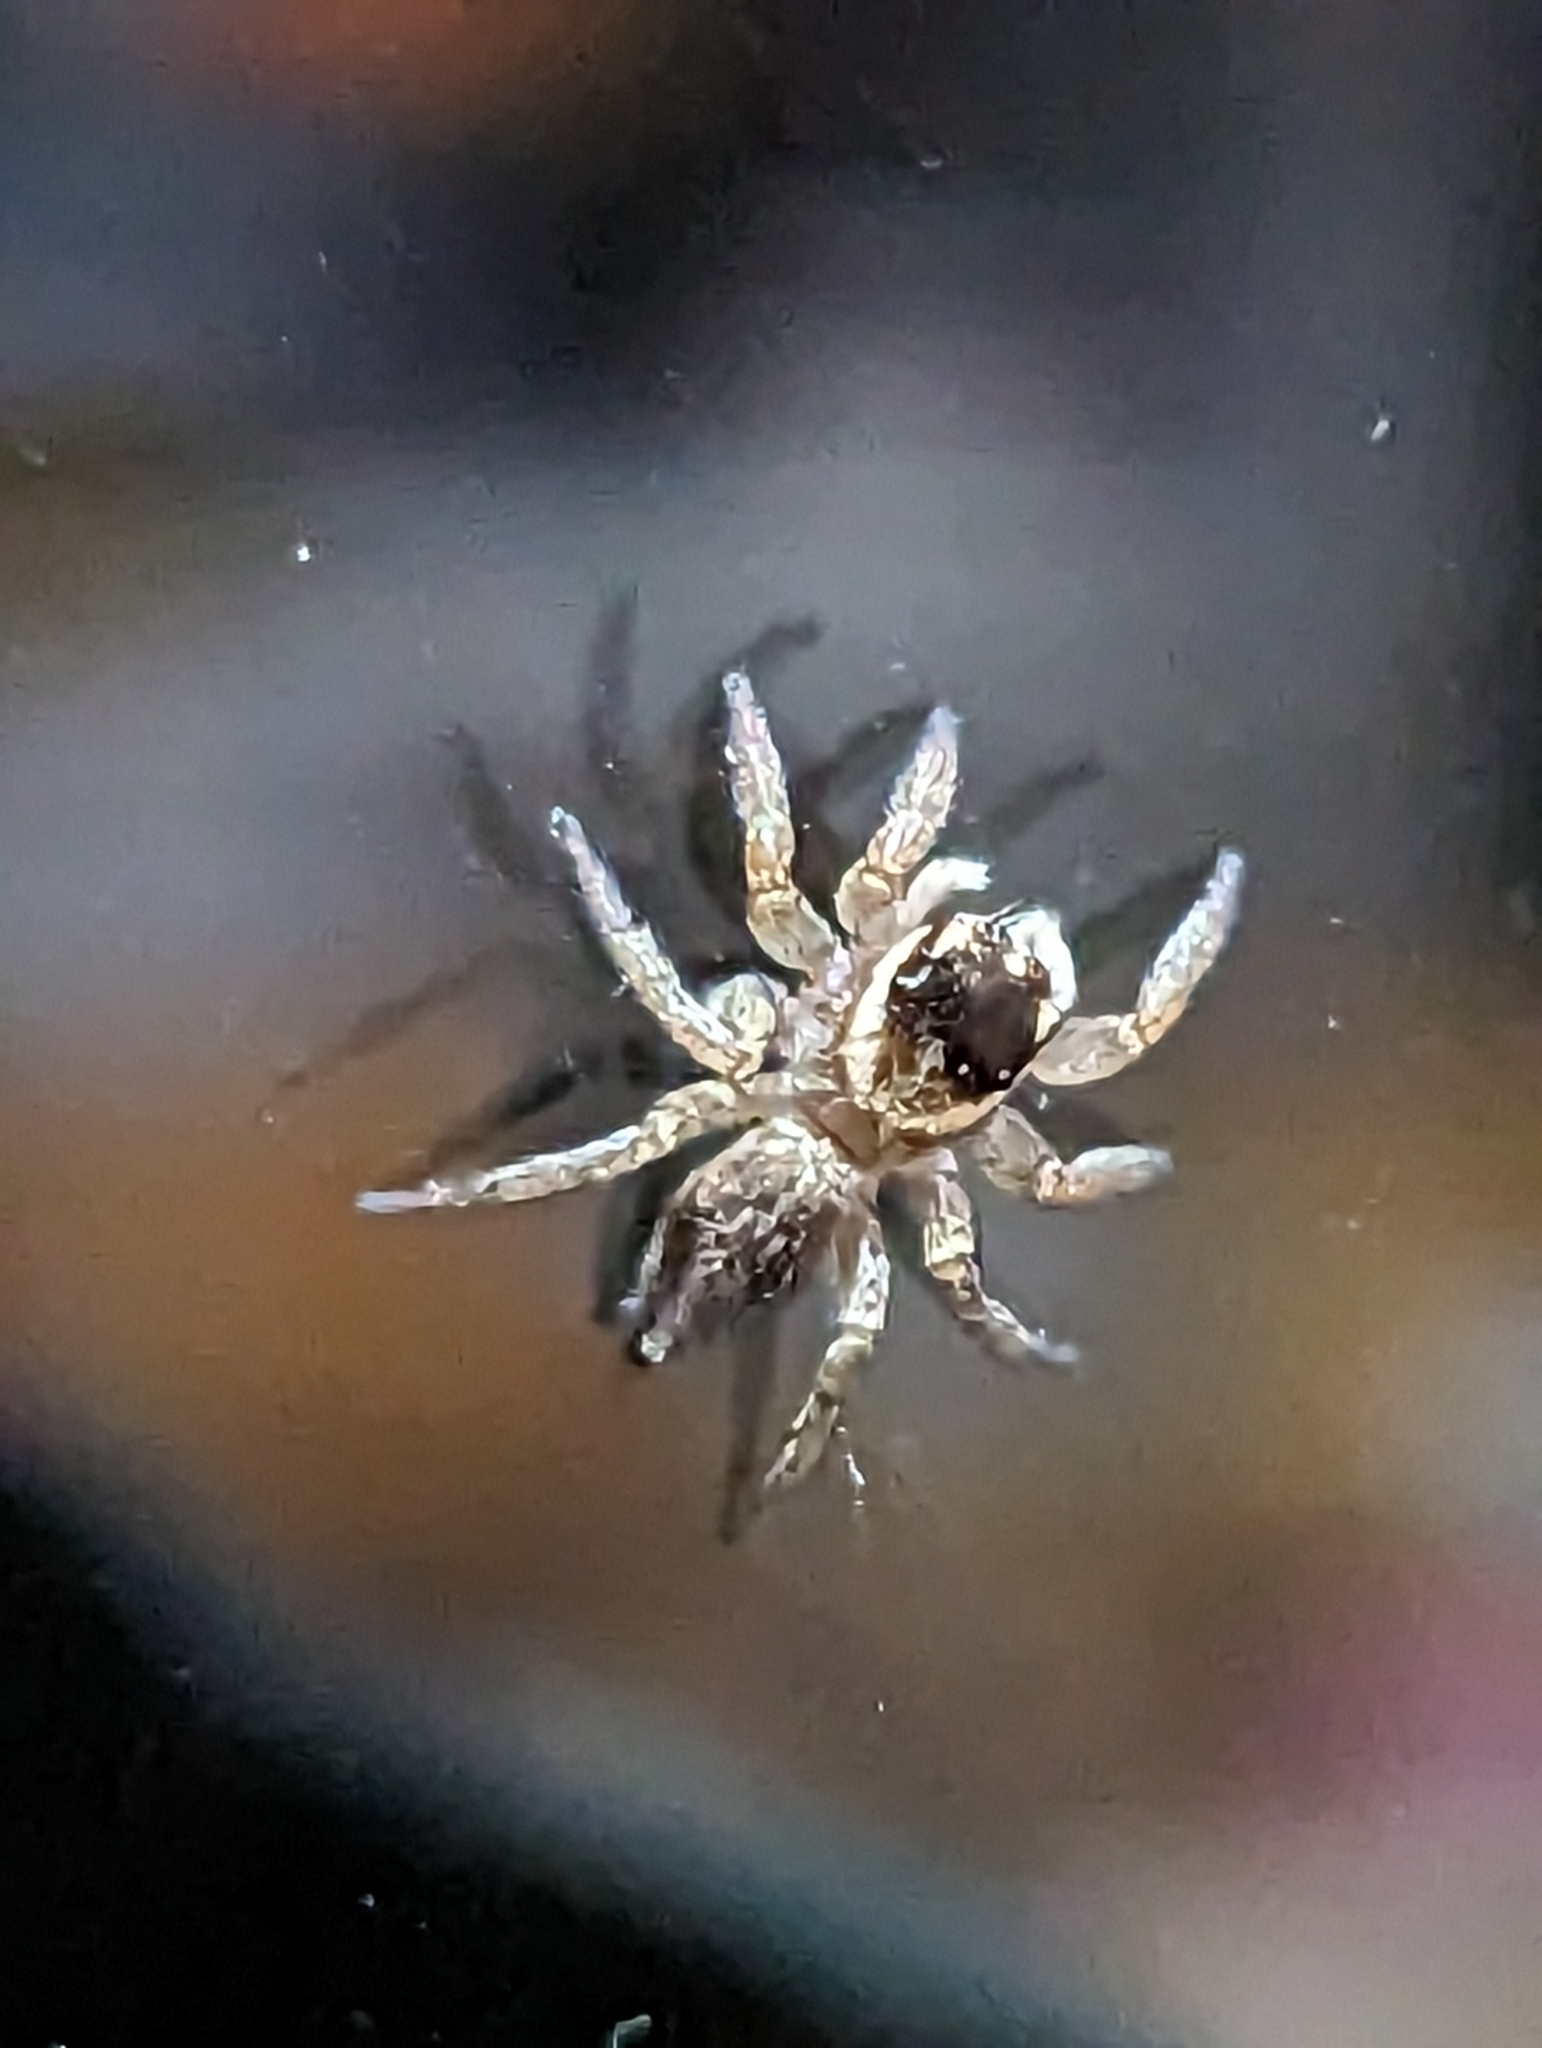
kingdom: Animalia
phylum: Arthropoda
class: Arachnida
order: Araneae
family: Salticidae
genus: Maratus
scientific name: Maratus griseus
